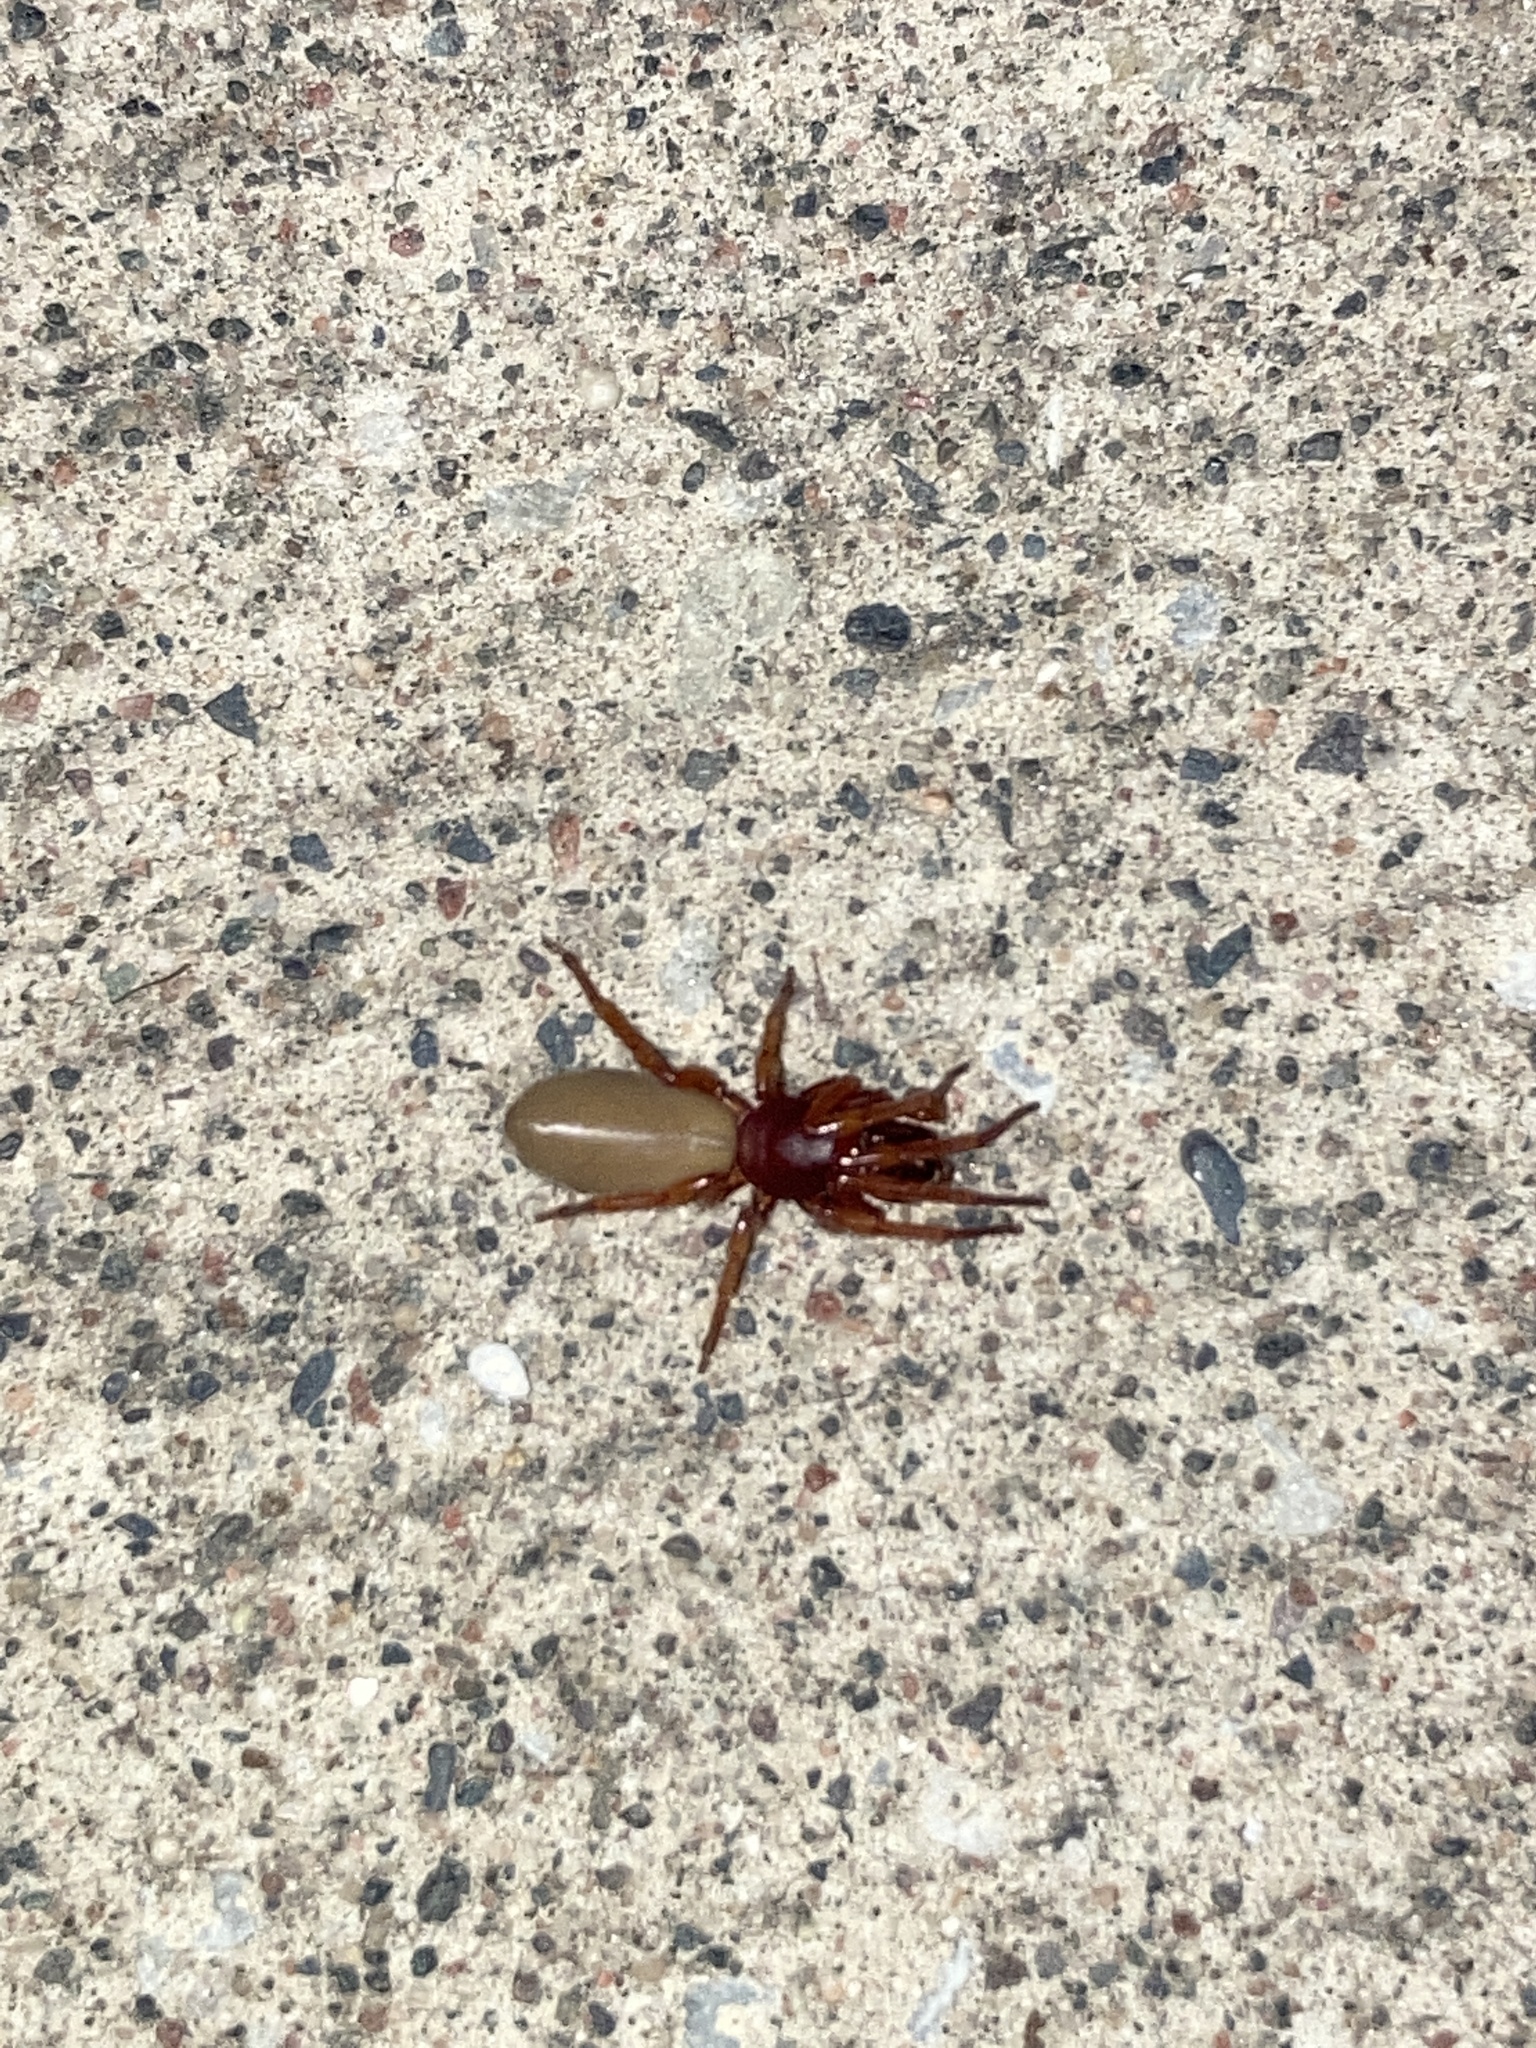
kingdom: Animalia
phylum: Arthropoda
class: Arachnida
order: Araneae
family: Dysderidae
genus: Dysdera
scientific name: Dysdera crocata
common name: Woodlouse spider
